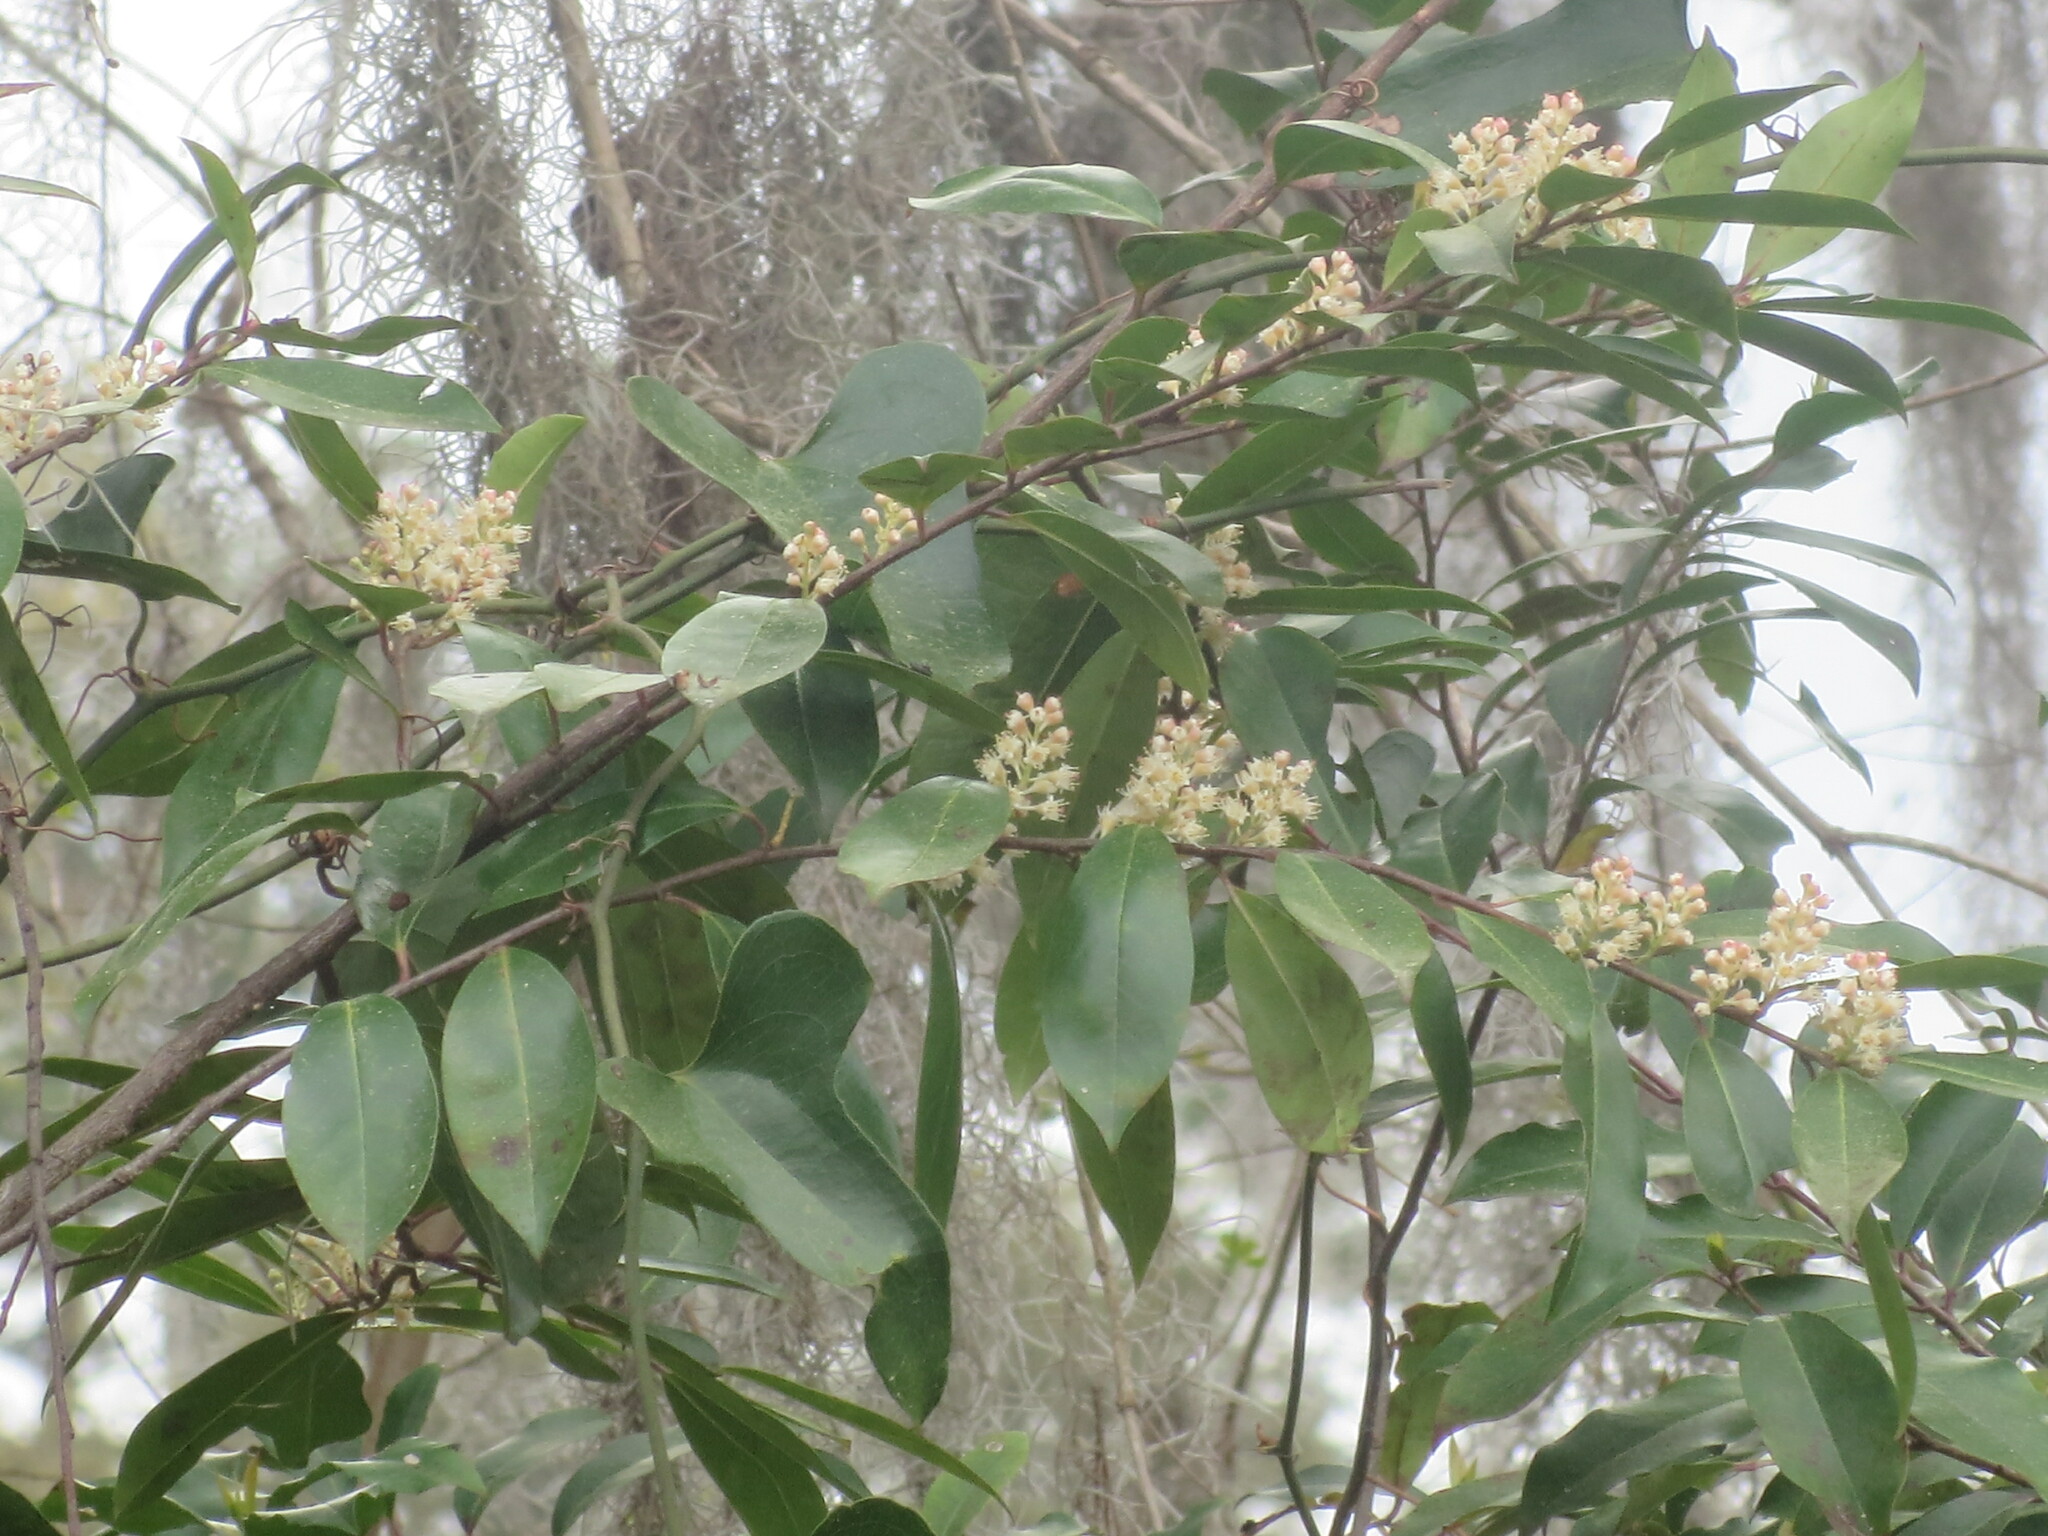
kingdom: Plantae
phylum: Tracheophyta
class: Magnoliopsida
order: Rosales
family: Rosaceae
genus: Prunus
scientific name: Prunus caroliniana
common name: Carolina laurel cherry
